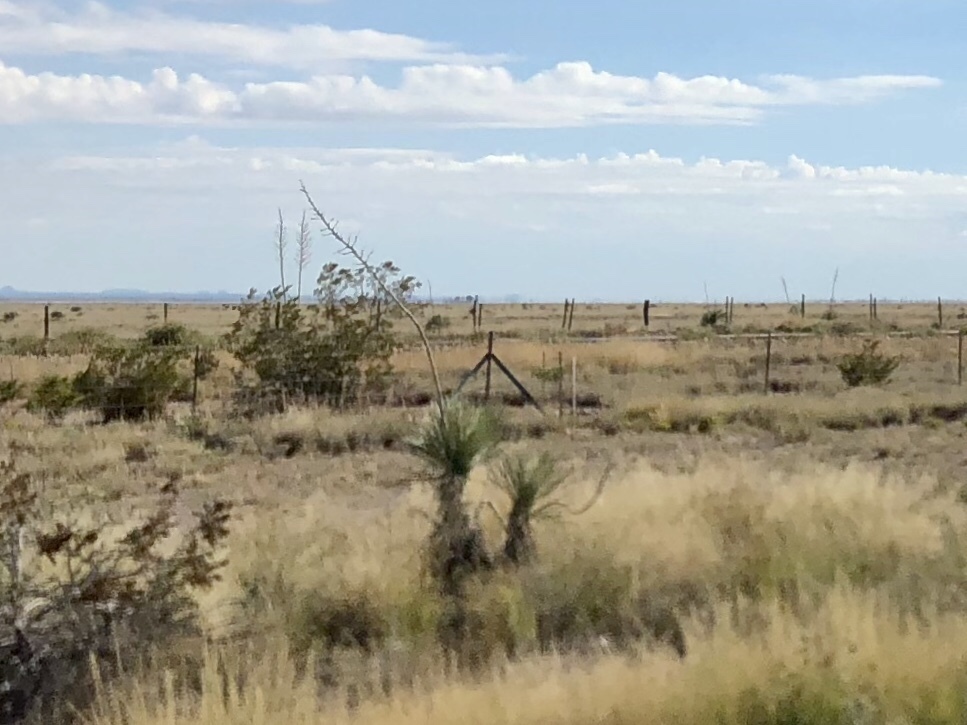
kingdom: Plantae
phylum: Tracheophyta
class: Liliopsida
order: Asparagales
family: Asparagaceae
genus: Yucca
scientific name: Yucca elata
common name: Palmella
